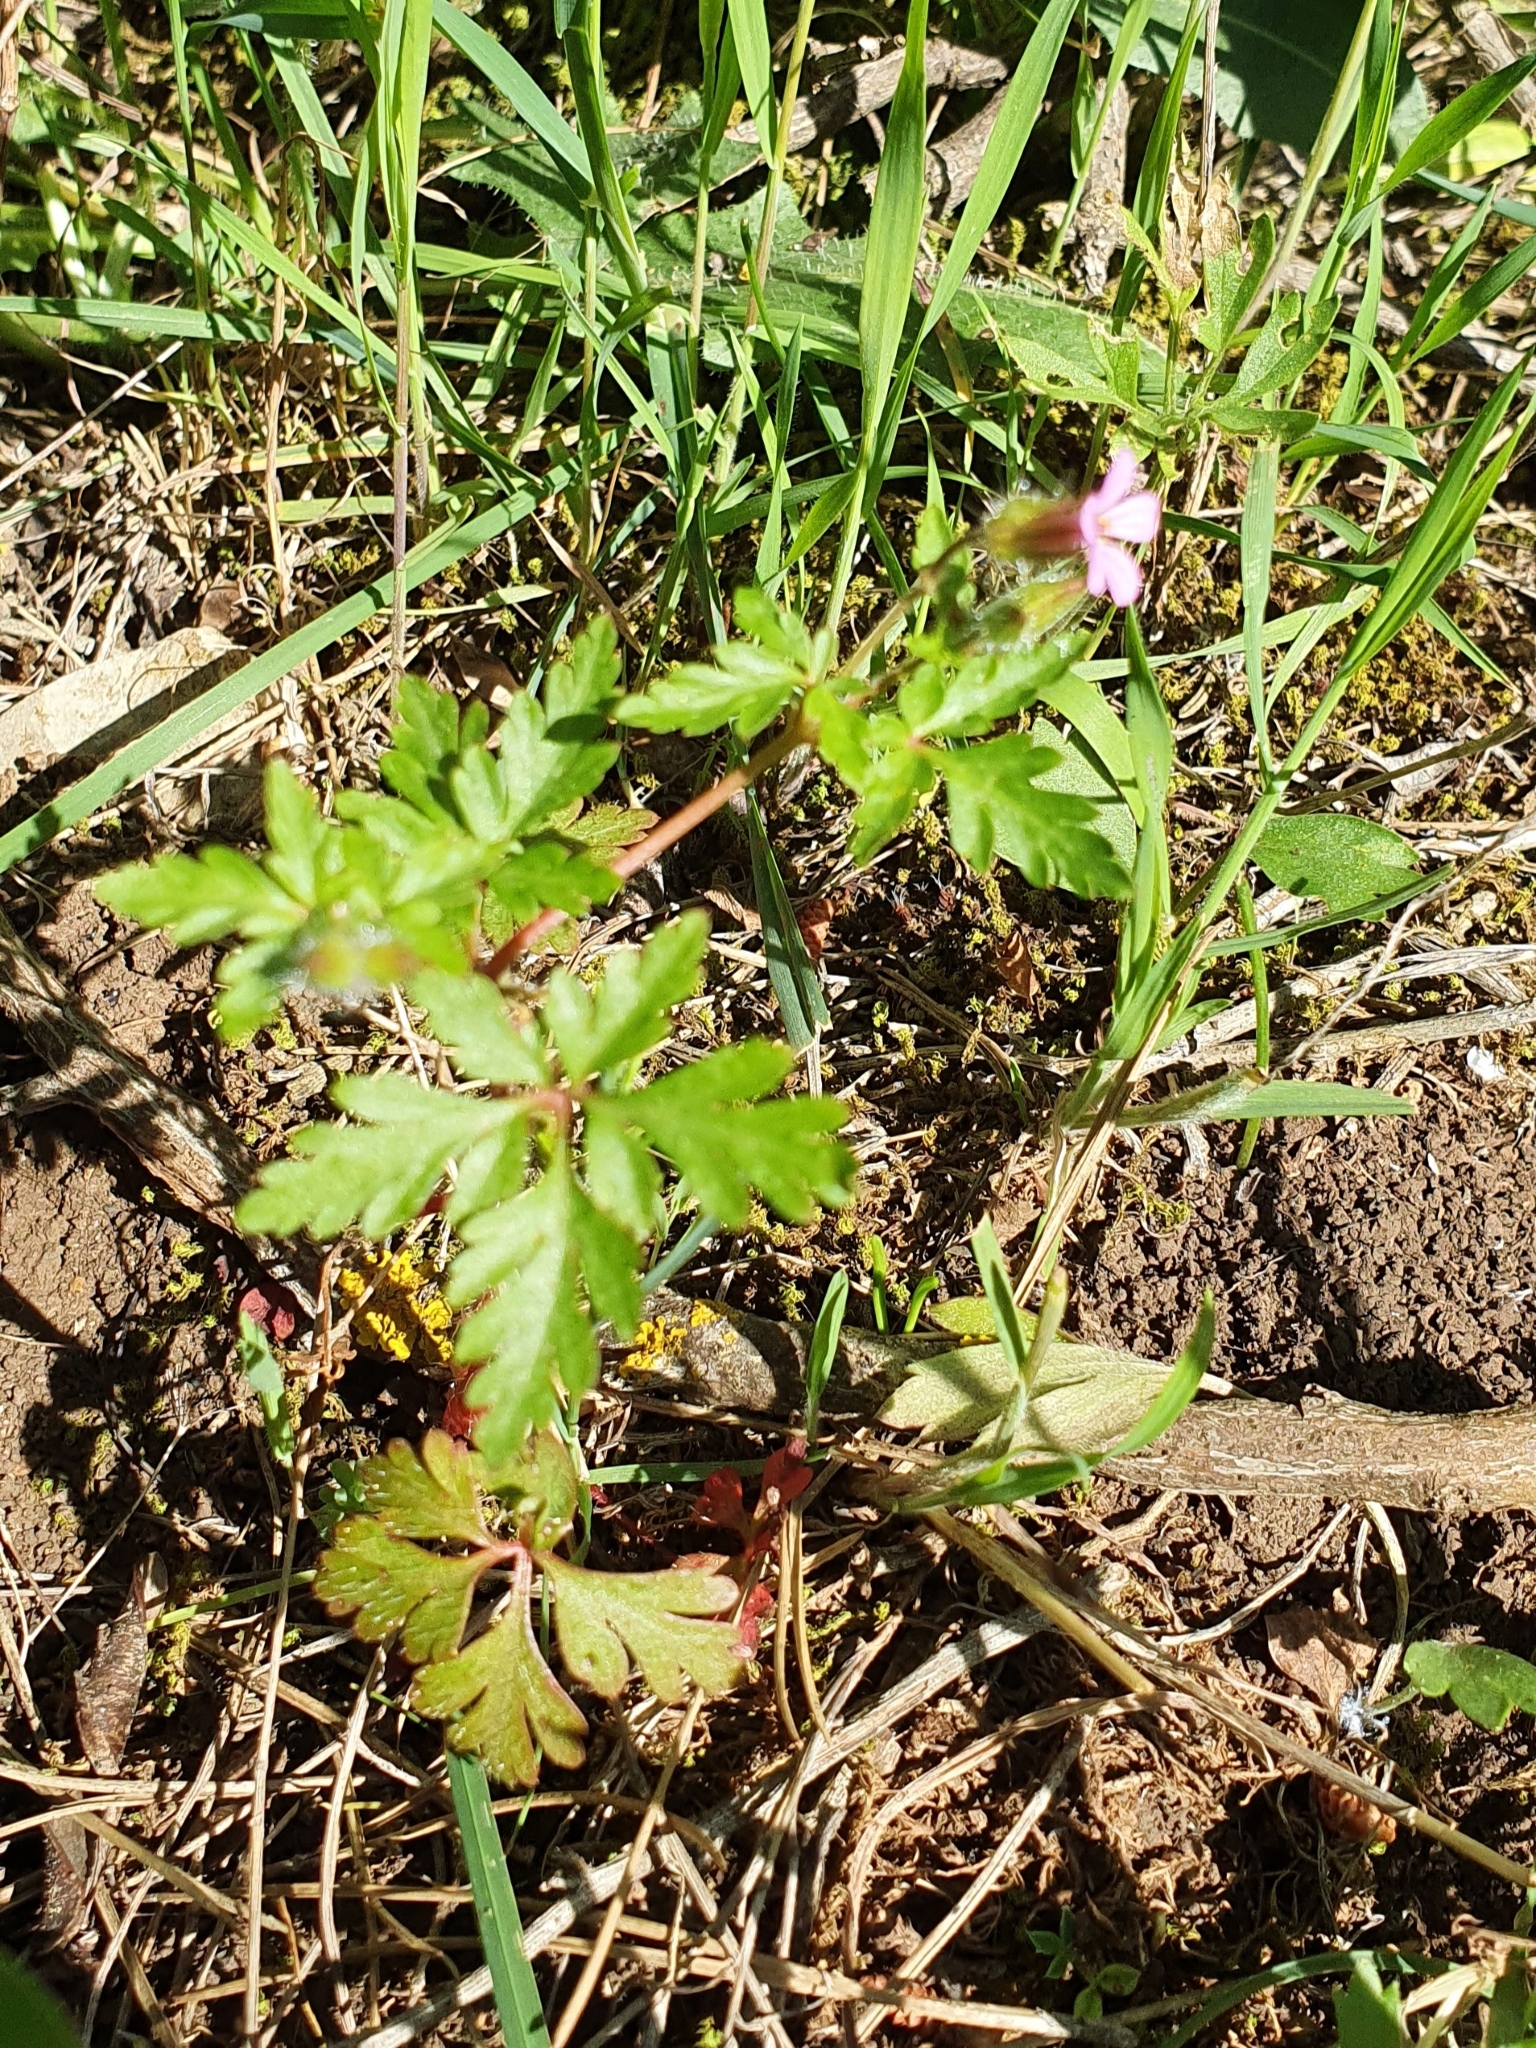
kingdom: Plantae
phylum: Tracheophyta
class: Magnoliopsida
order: Geraniales
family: Geraniaceae
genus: Geranium
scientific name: Geranium purpureum
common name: Little-robin
